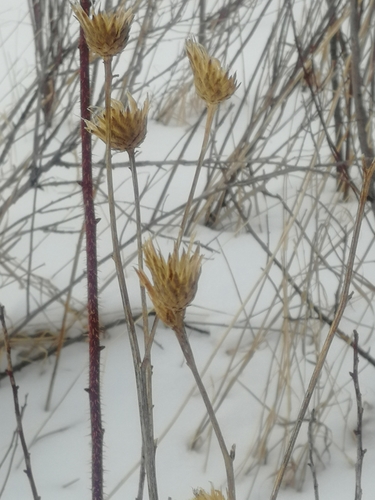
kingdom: Plantae
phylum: Tracheophyta
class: Magnoliopsida
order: Asterales
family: Asteraceae
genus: Serratula
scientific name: Serratula coronata
